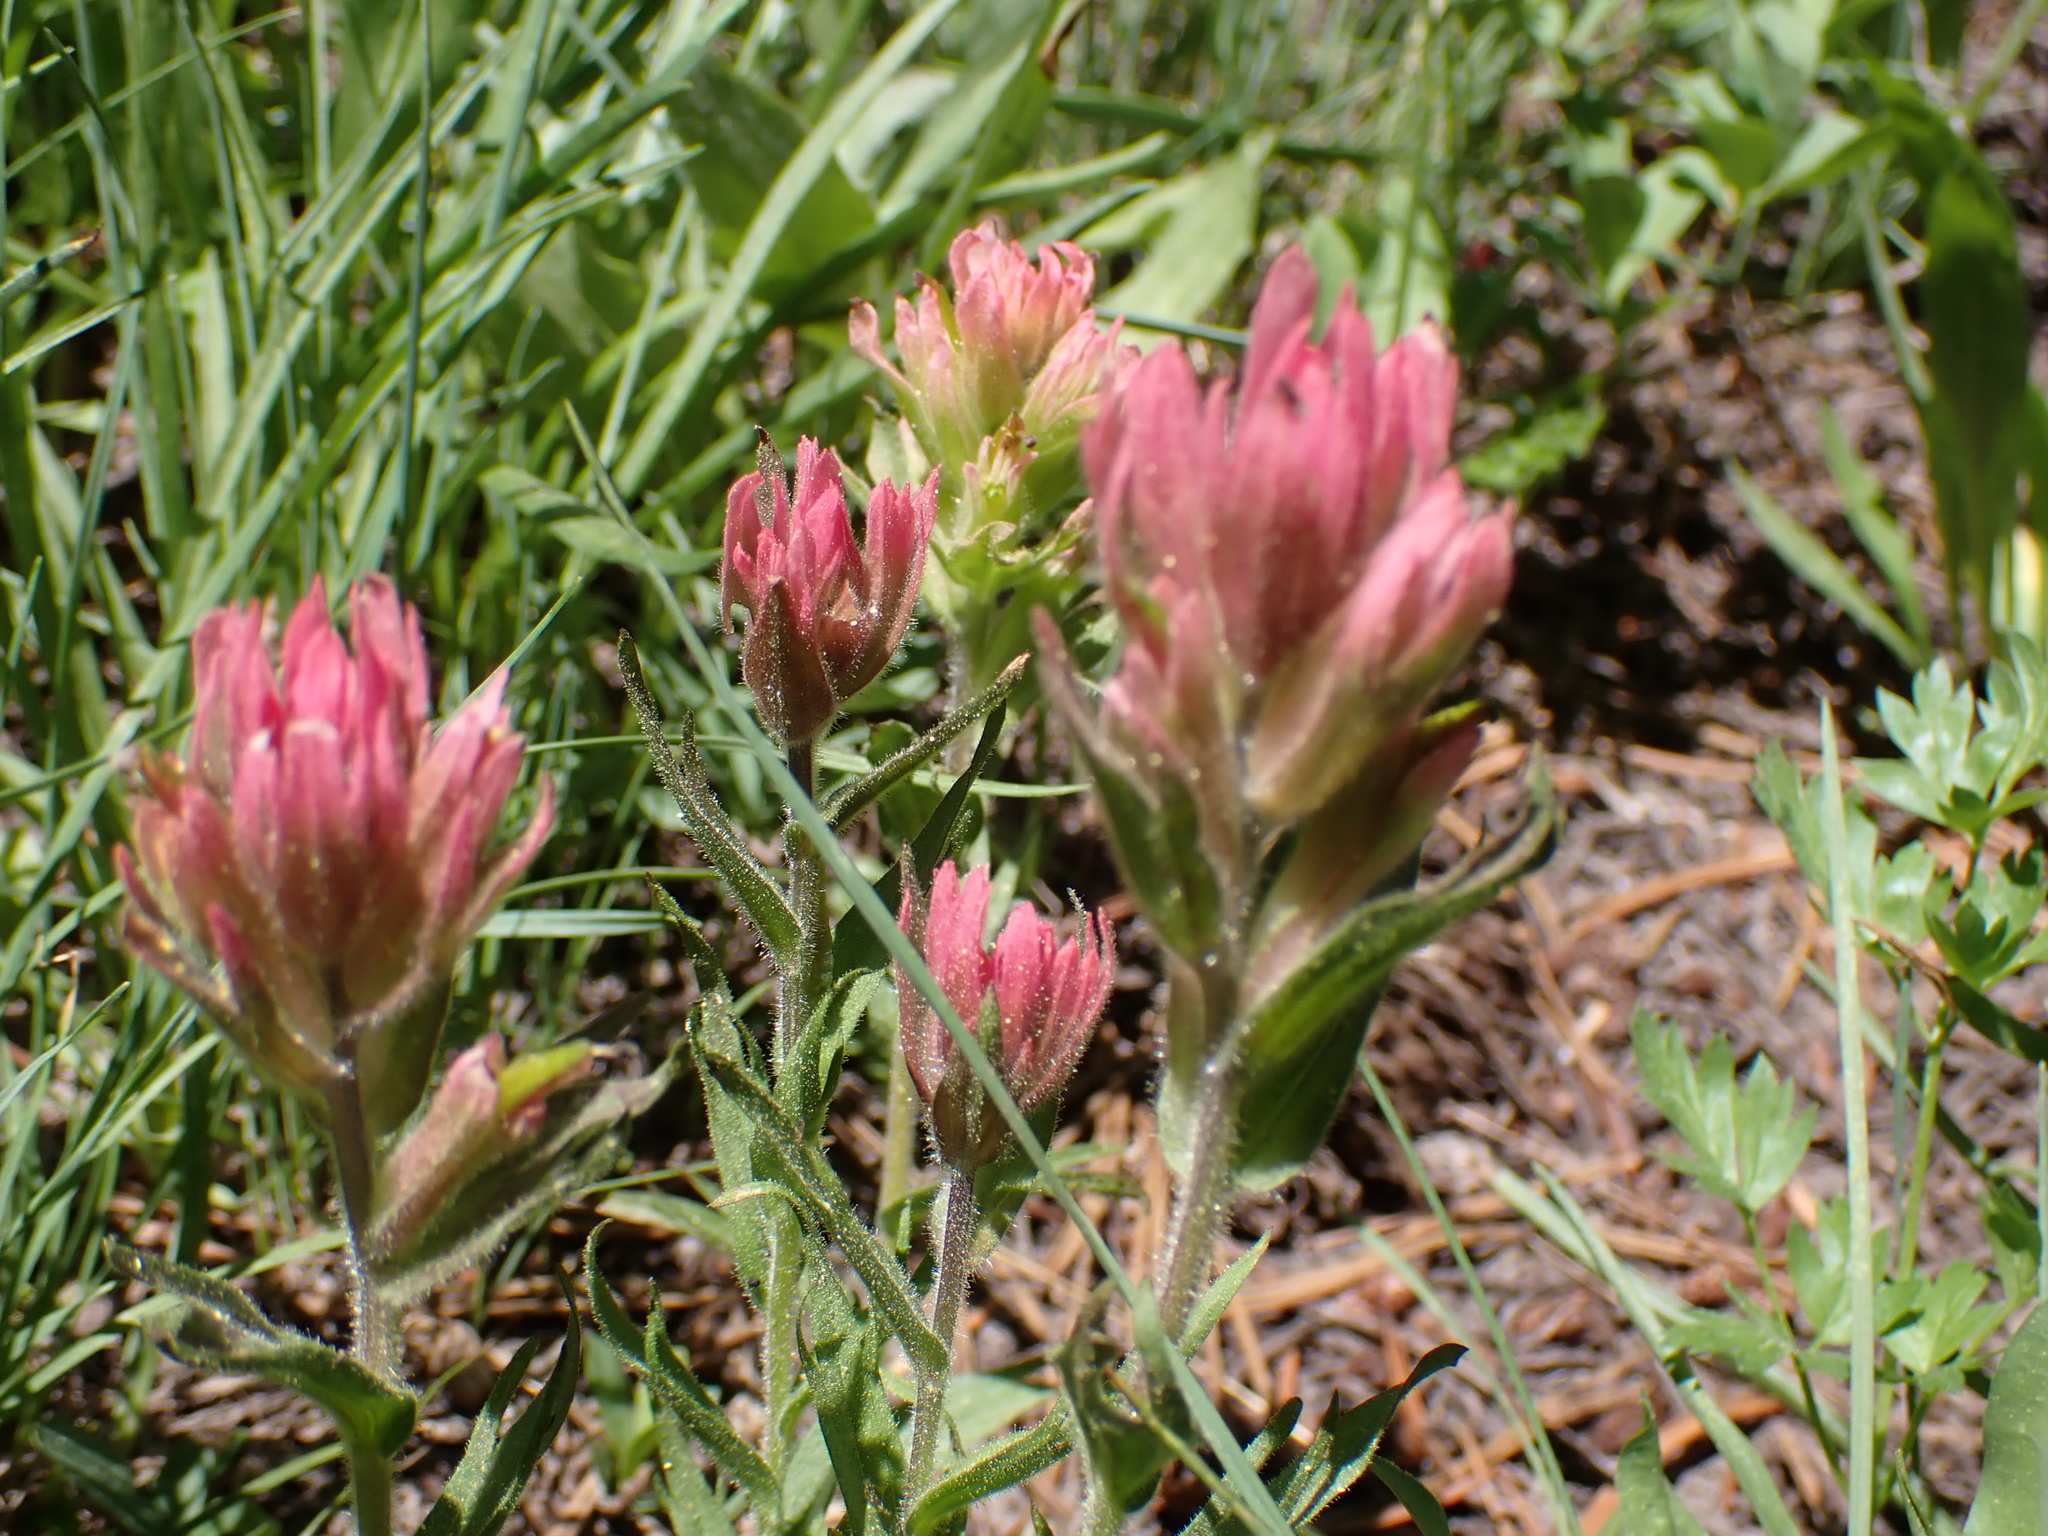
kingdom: Plantae
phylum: Tracheophyta
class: Magnoliopsida
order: Lamiales
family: Orobanchaceae
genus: Castilleja
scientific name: Castilleja lemmonii
